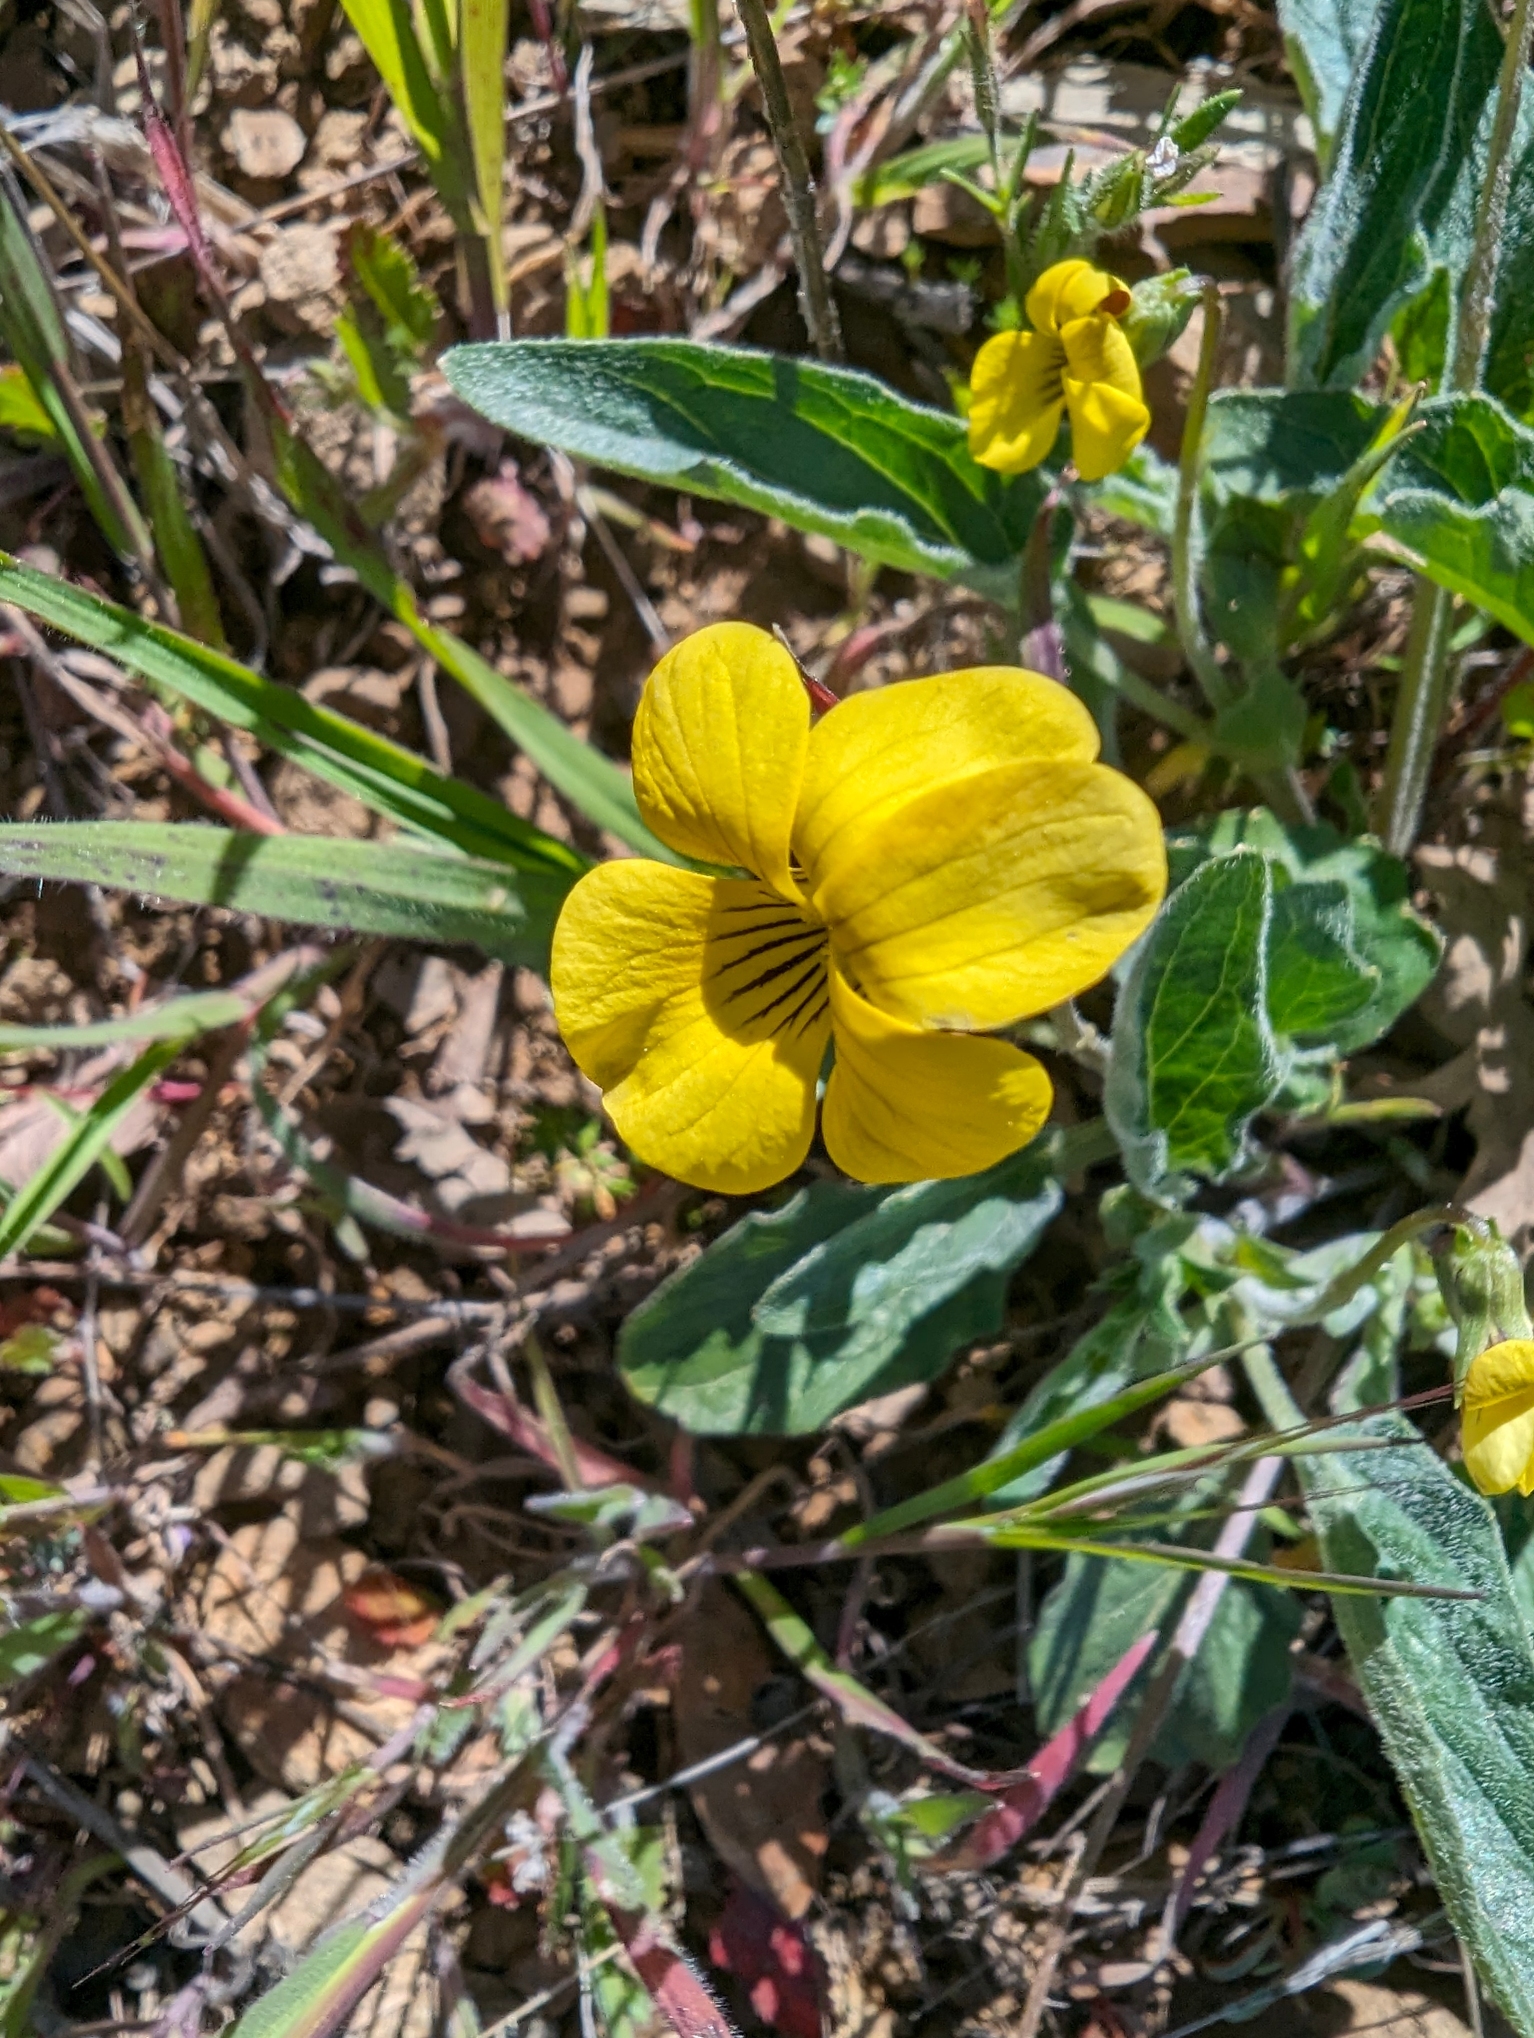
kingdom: Plantae
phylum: Tracheophyta
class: Magnoliopsida
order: Malpighiales
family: Violaceae
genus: Viola
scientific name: Viola quercetorum
